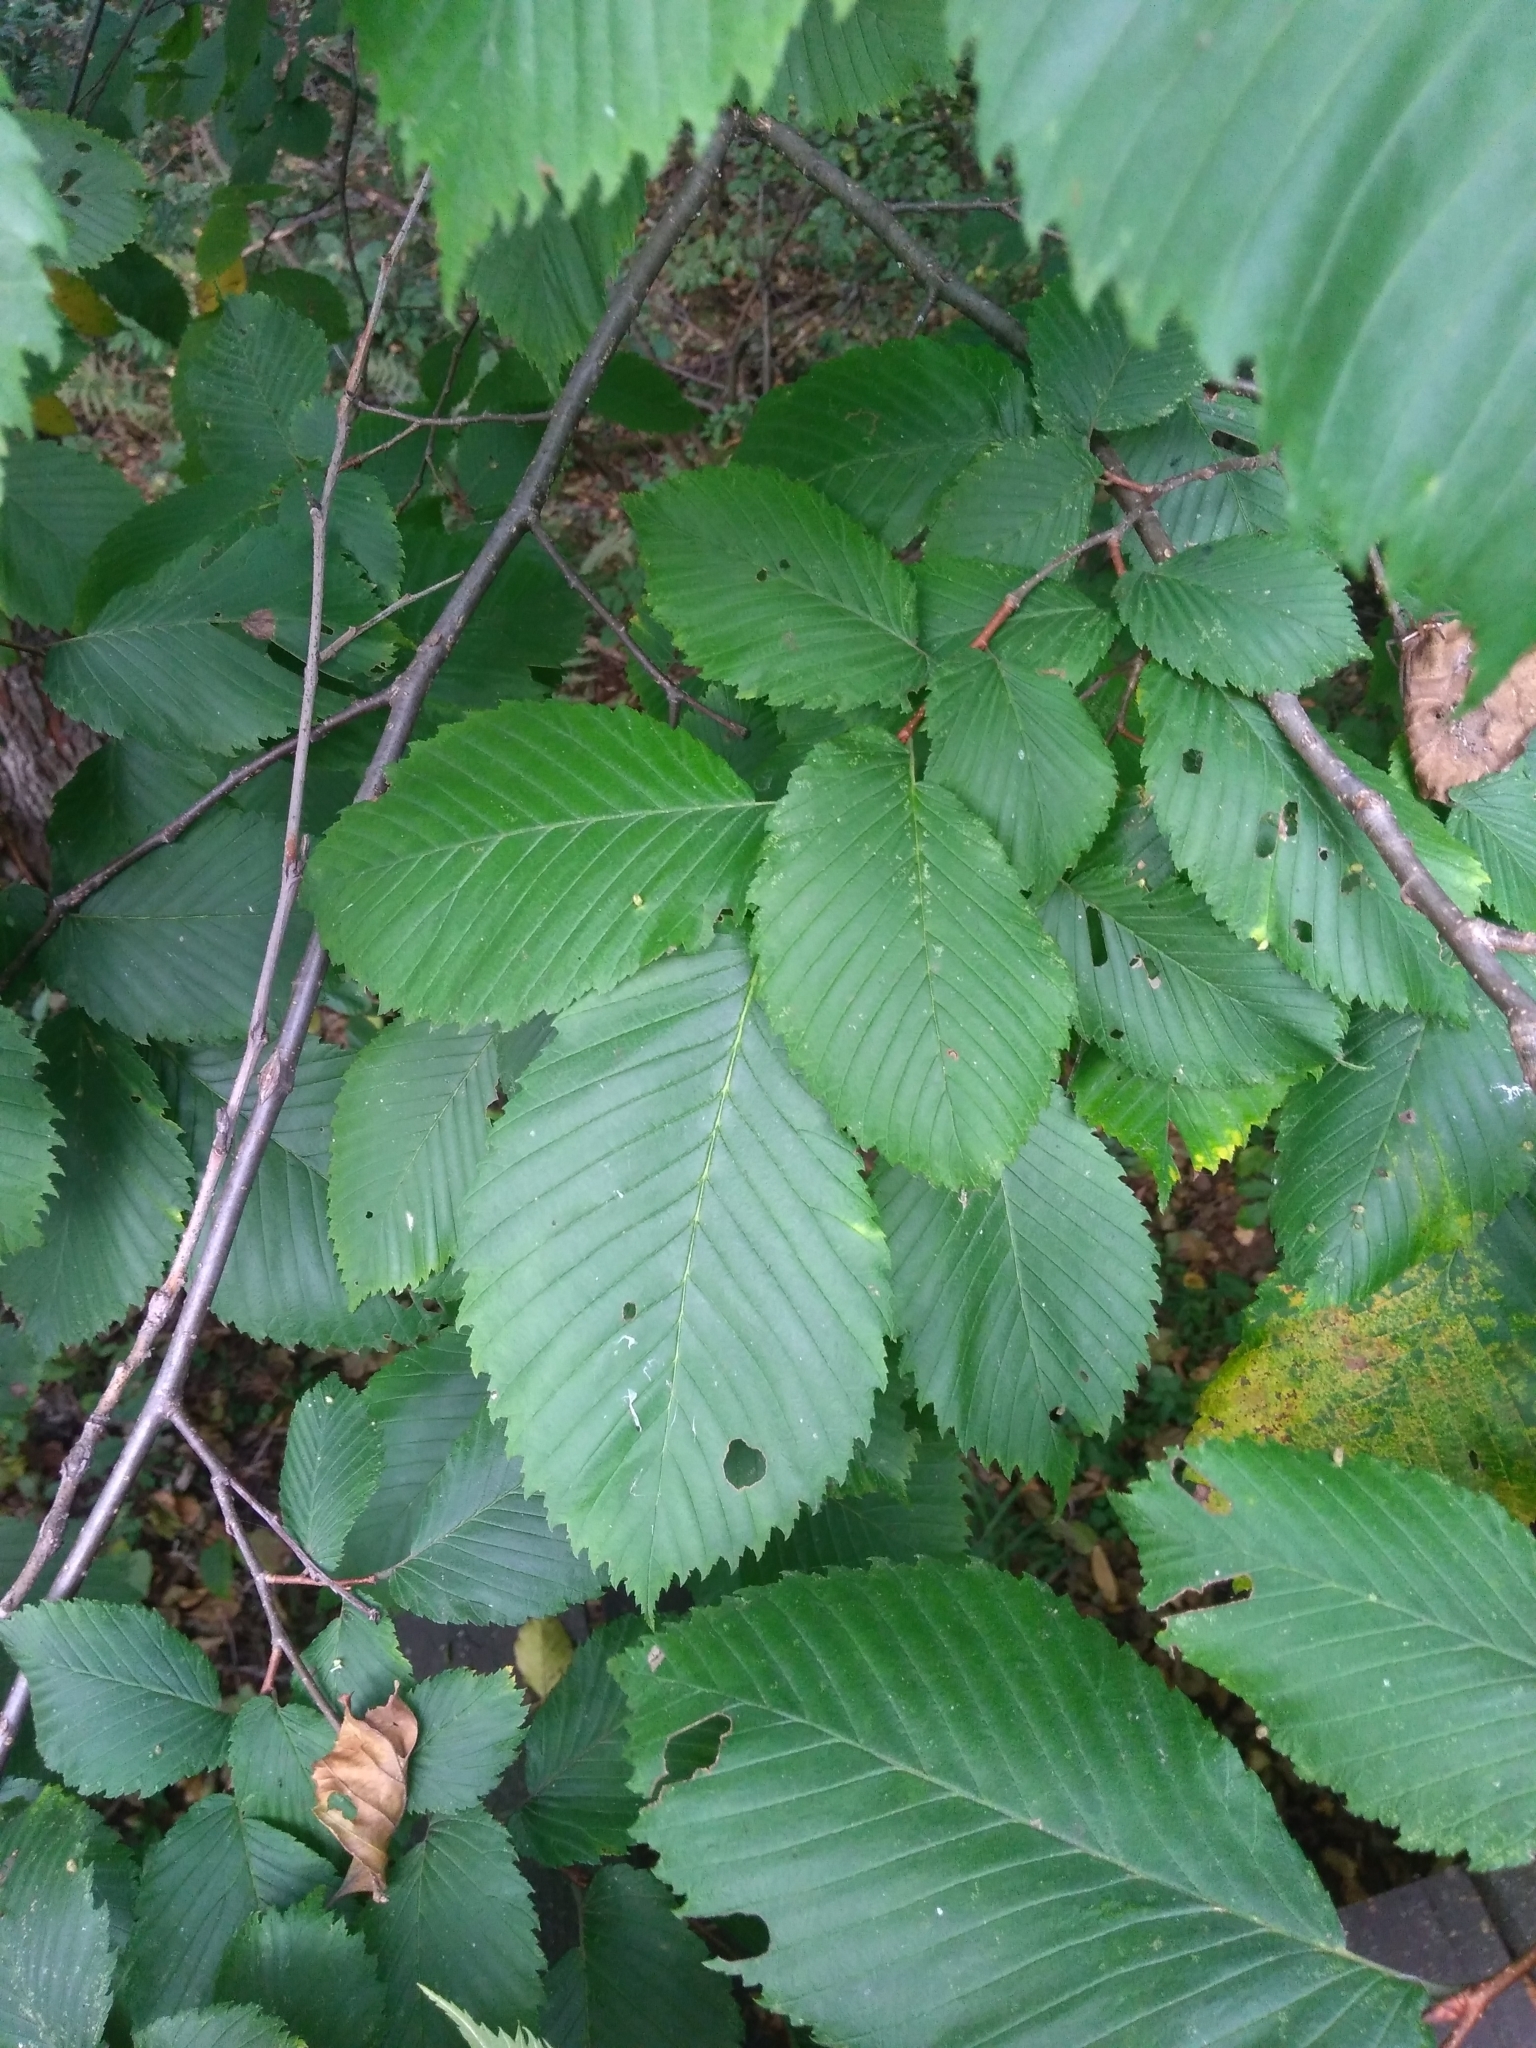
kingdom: Plantae
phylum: Tracheophyta
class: Magnoliopsida
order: Rosales
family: Ulmaceae
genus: Ulmus
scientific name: Ulmus laevis
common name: European white-elm
